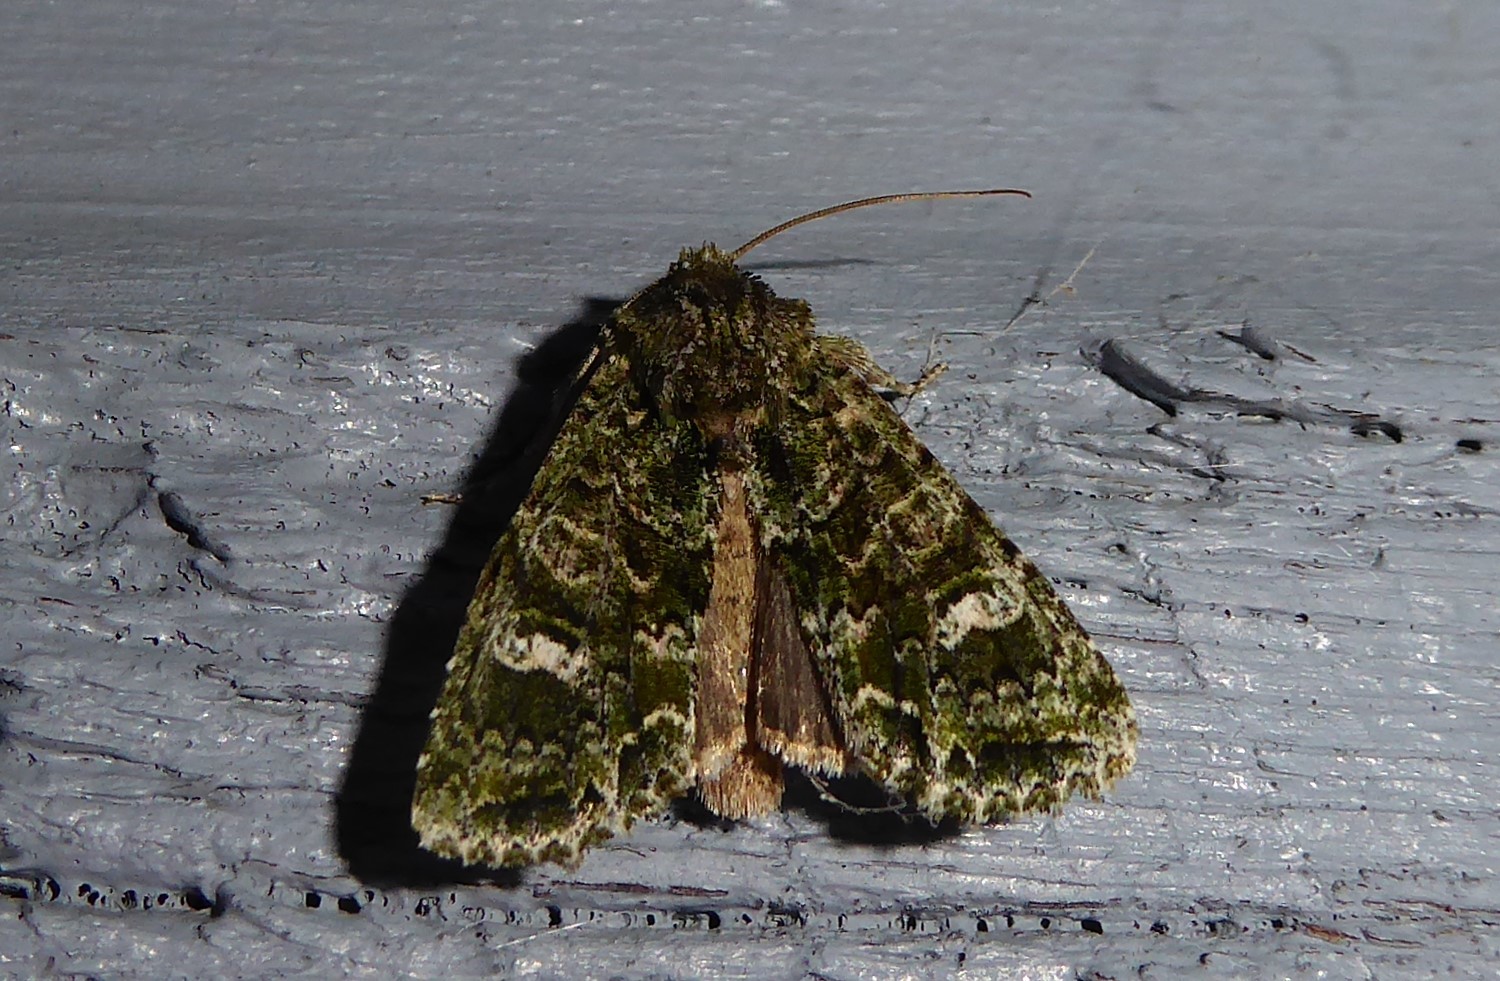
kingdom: Animalia
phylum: Arthropoda
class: Insecta
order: Lepidoptera
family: Noctuidae
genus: Ichneutica
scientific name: Ichneutica
